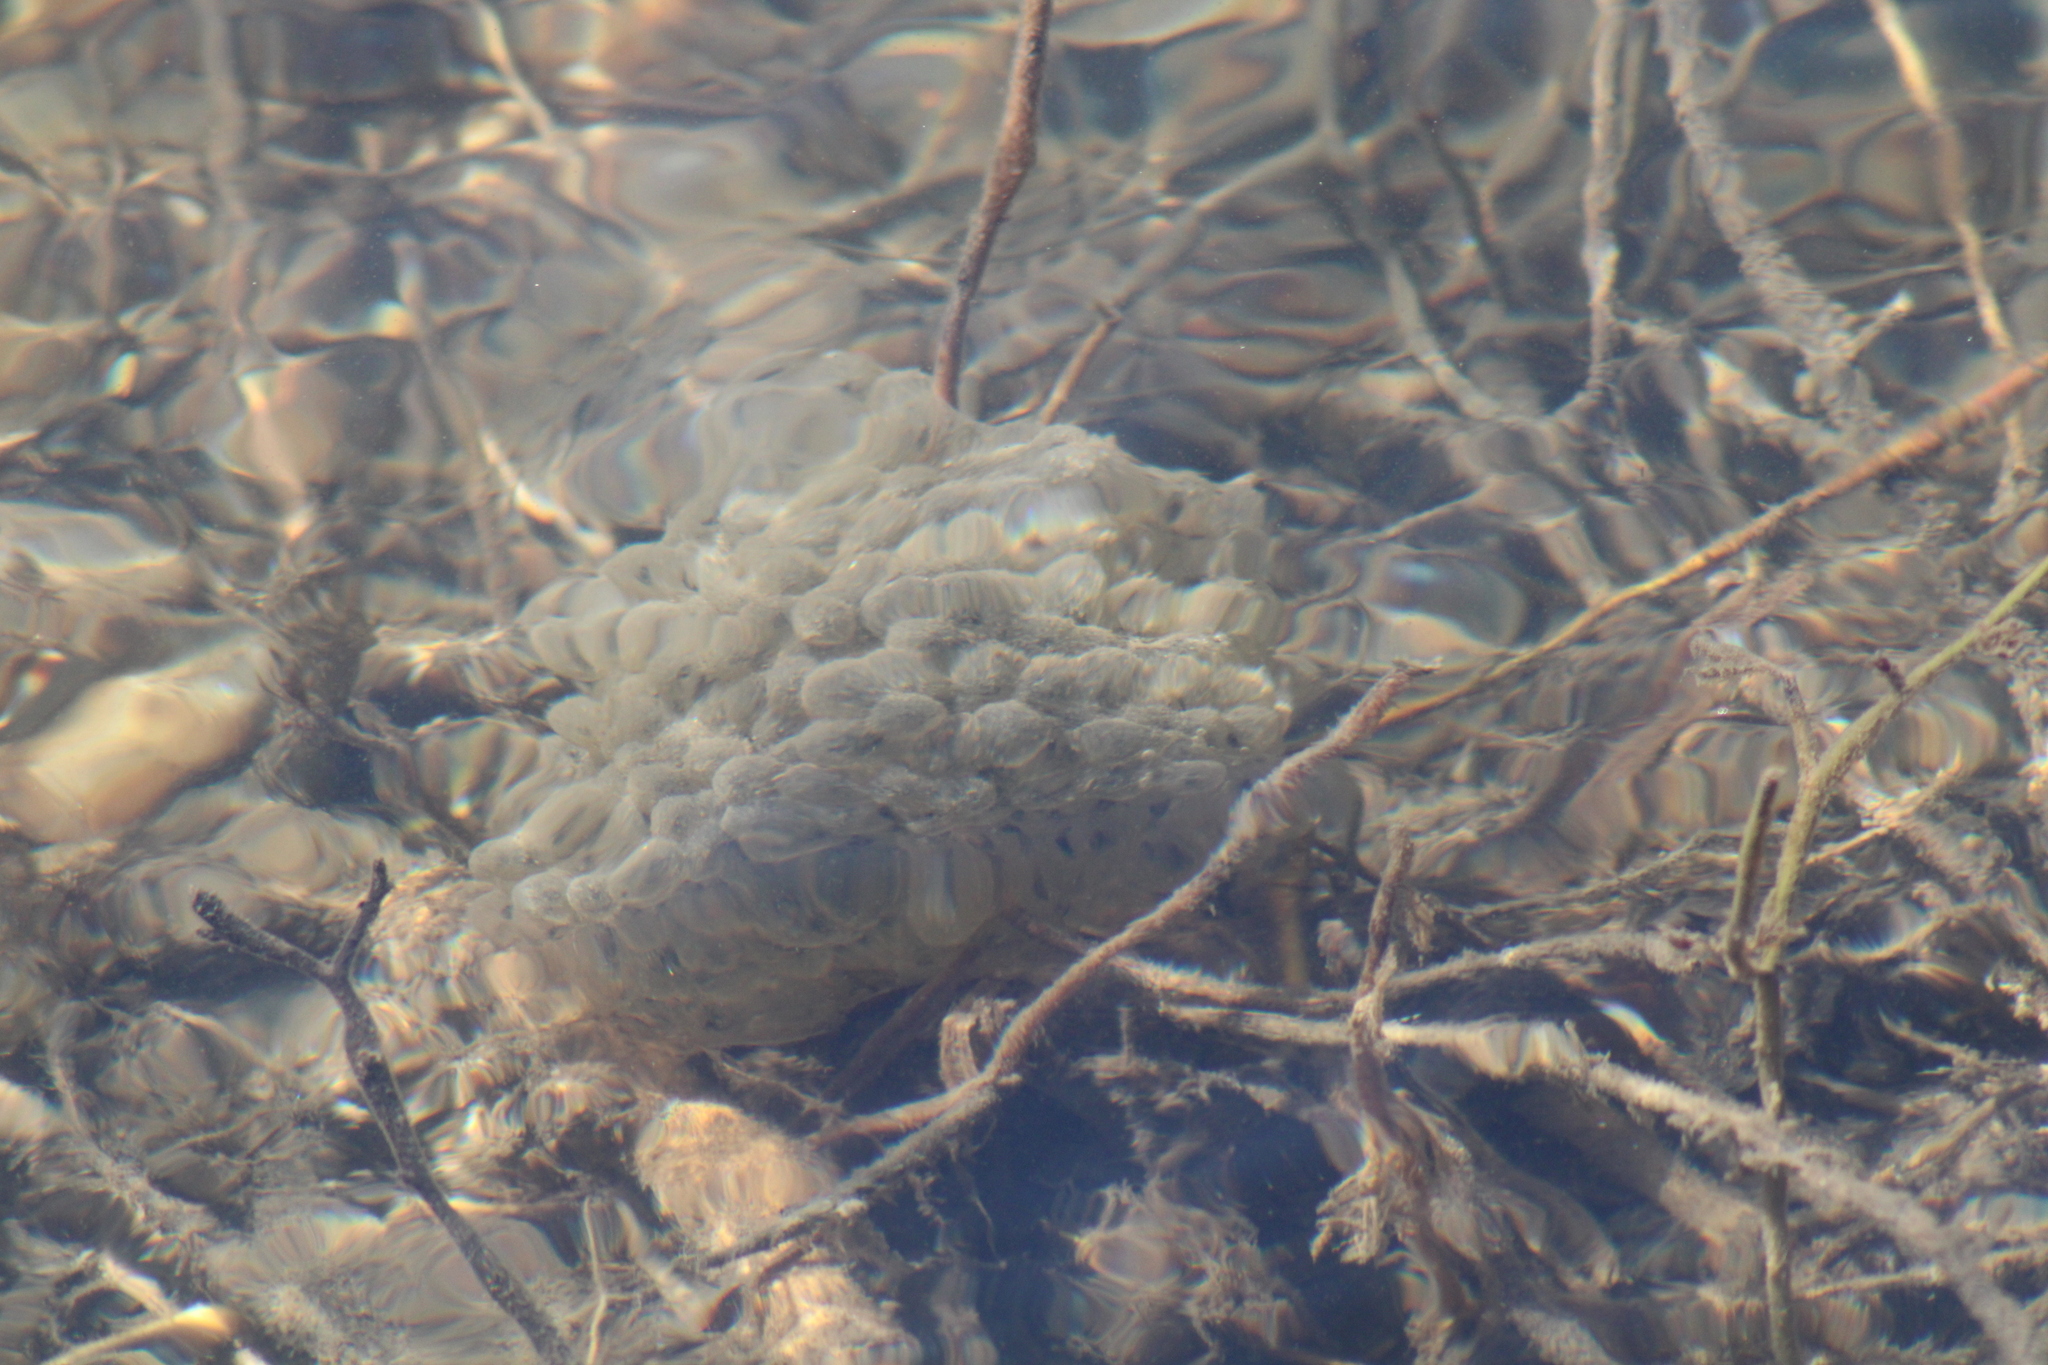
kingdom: Animalia
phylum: Chordata
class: Amphibia
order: Anura
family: Ranidae
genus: Rana
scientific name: Rana dalmatina
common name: Agile frog
